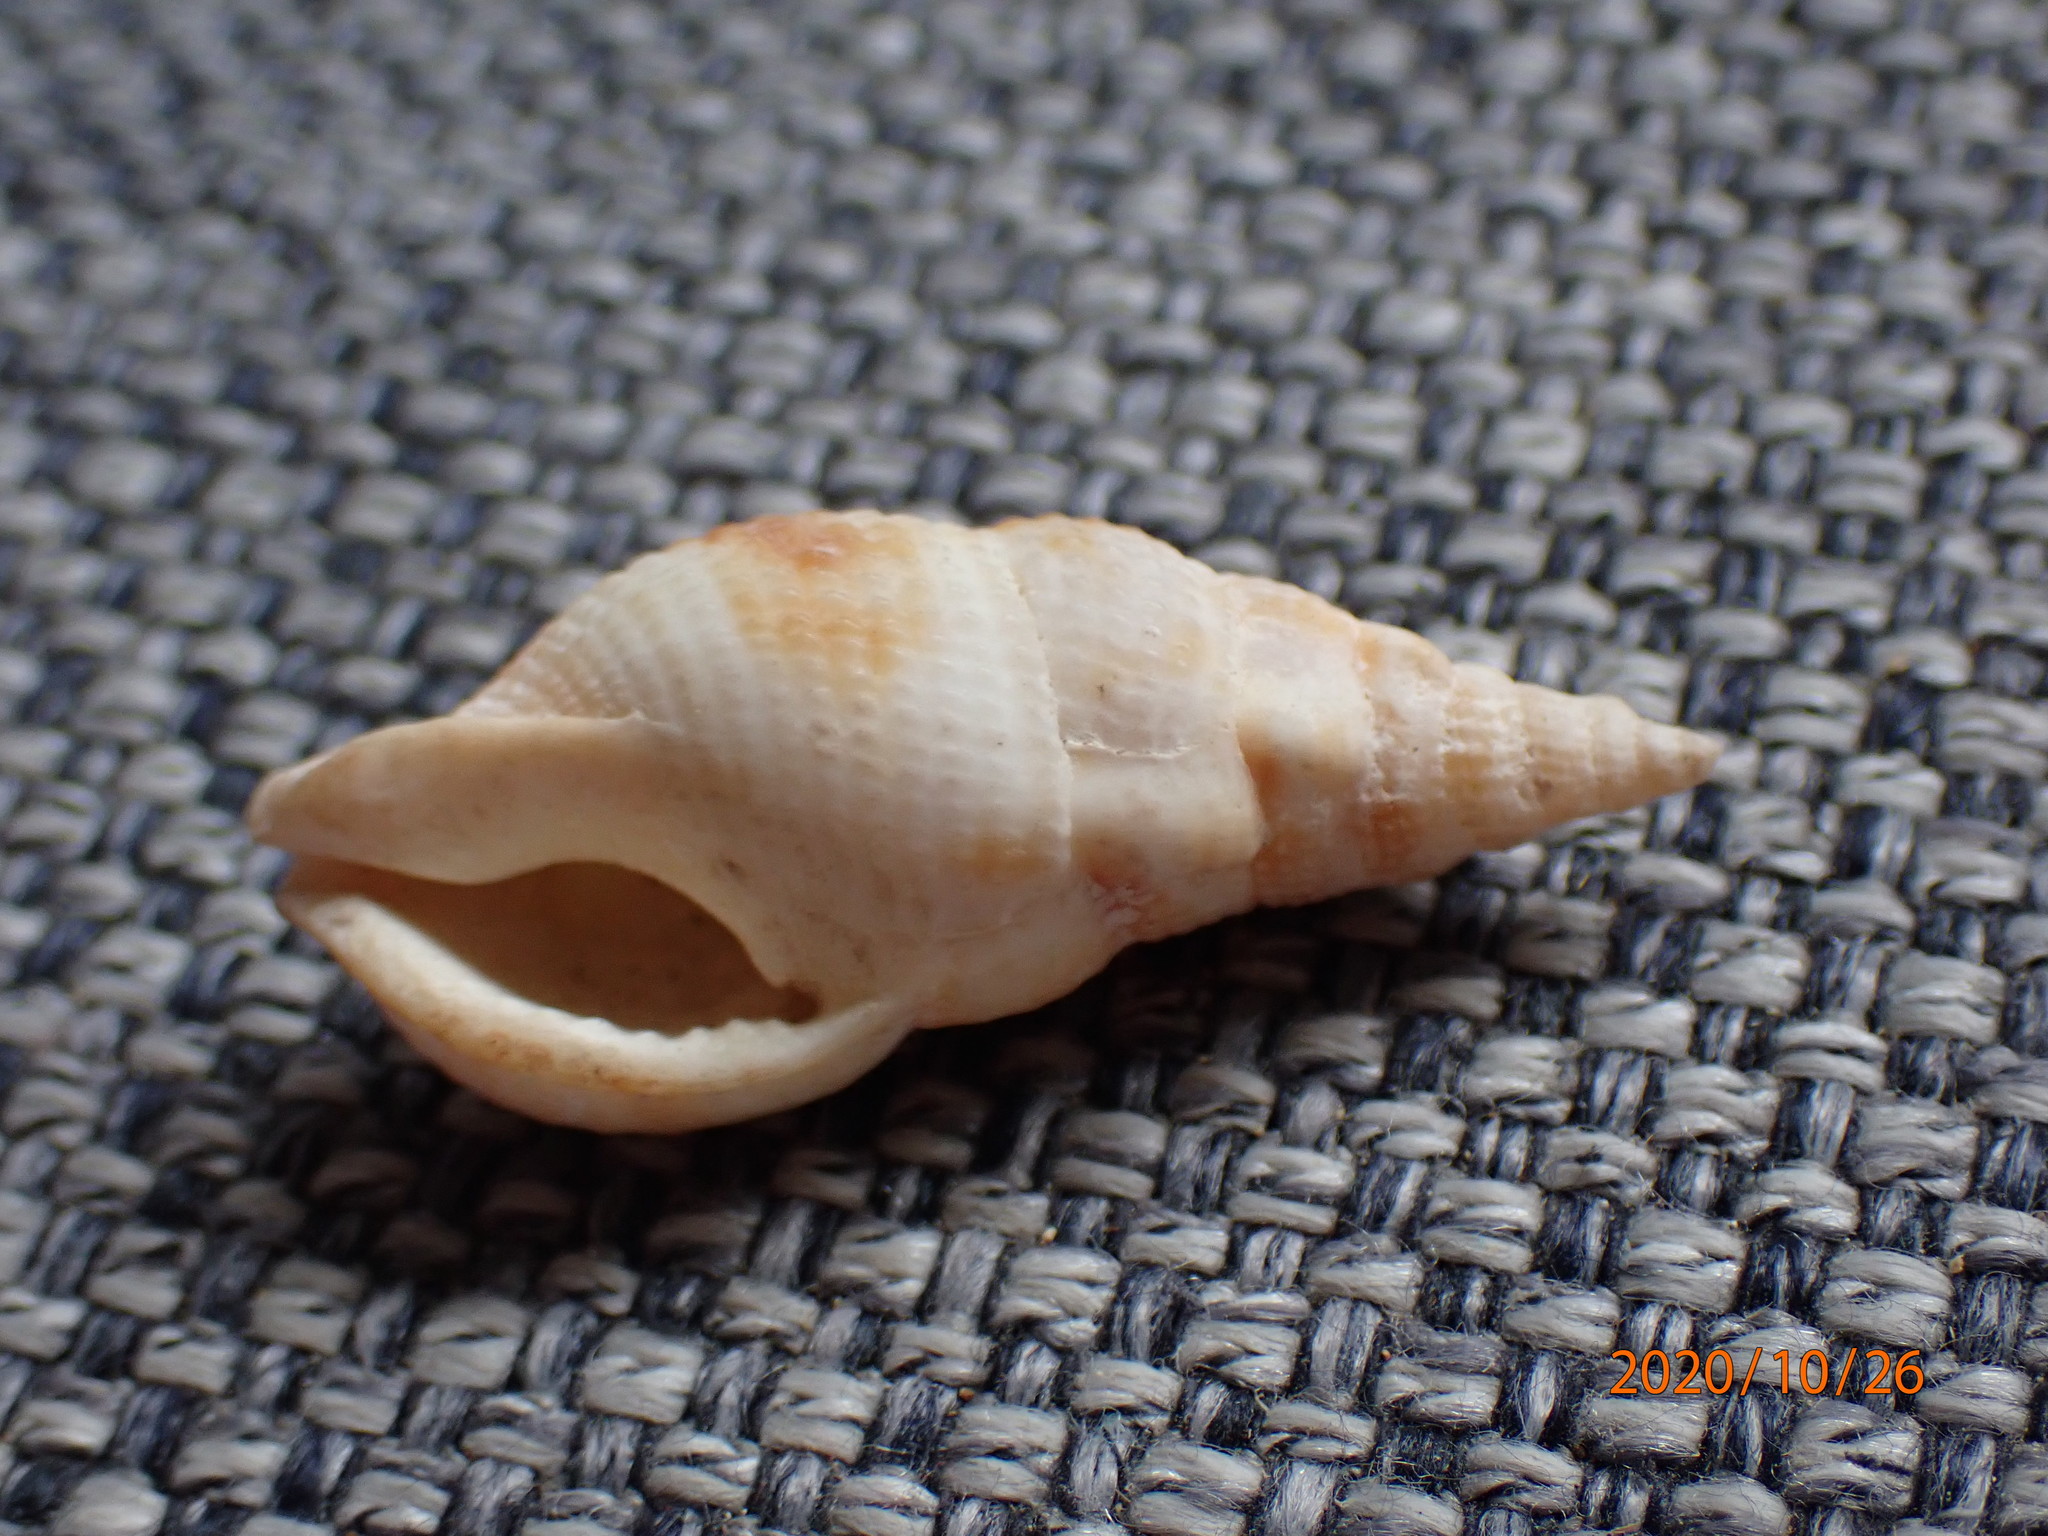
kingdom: Animalia
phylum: Mollusca
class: Gastropoda
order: Neogastropoda
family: Colubrariidae
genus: Colubraria
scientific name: Colubraria tortuosa
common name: Twisted dwarf triton
